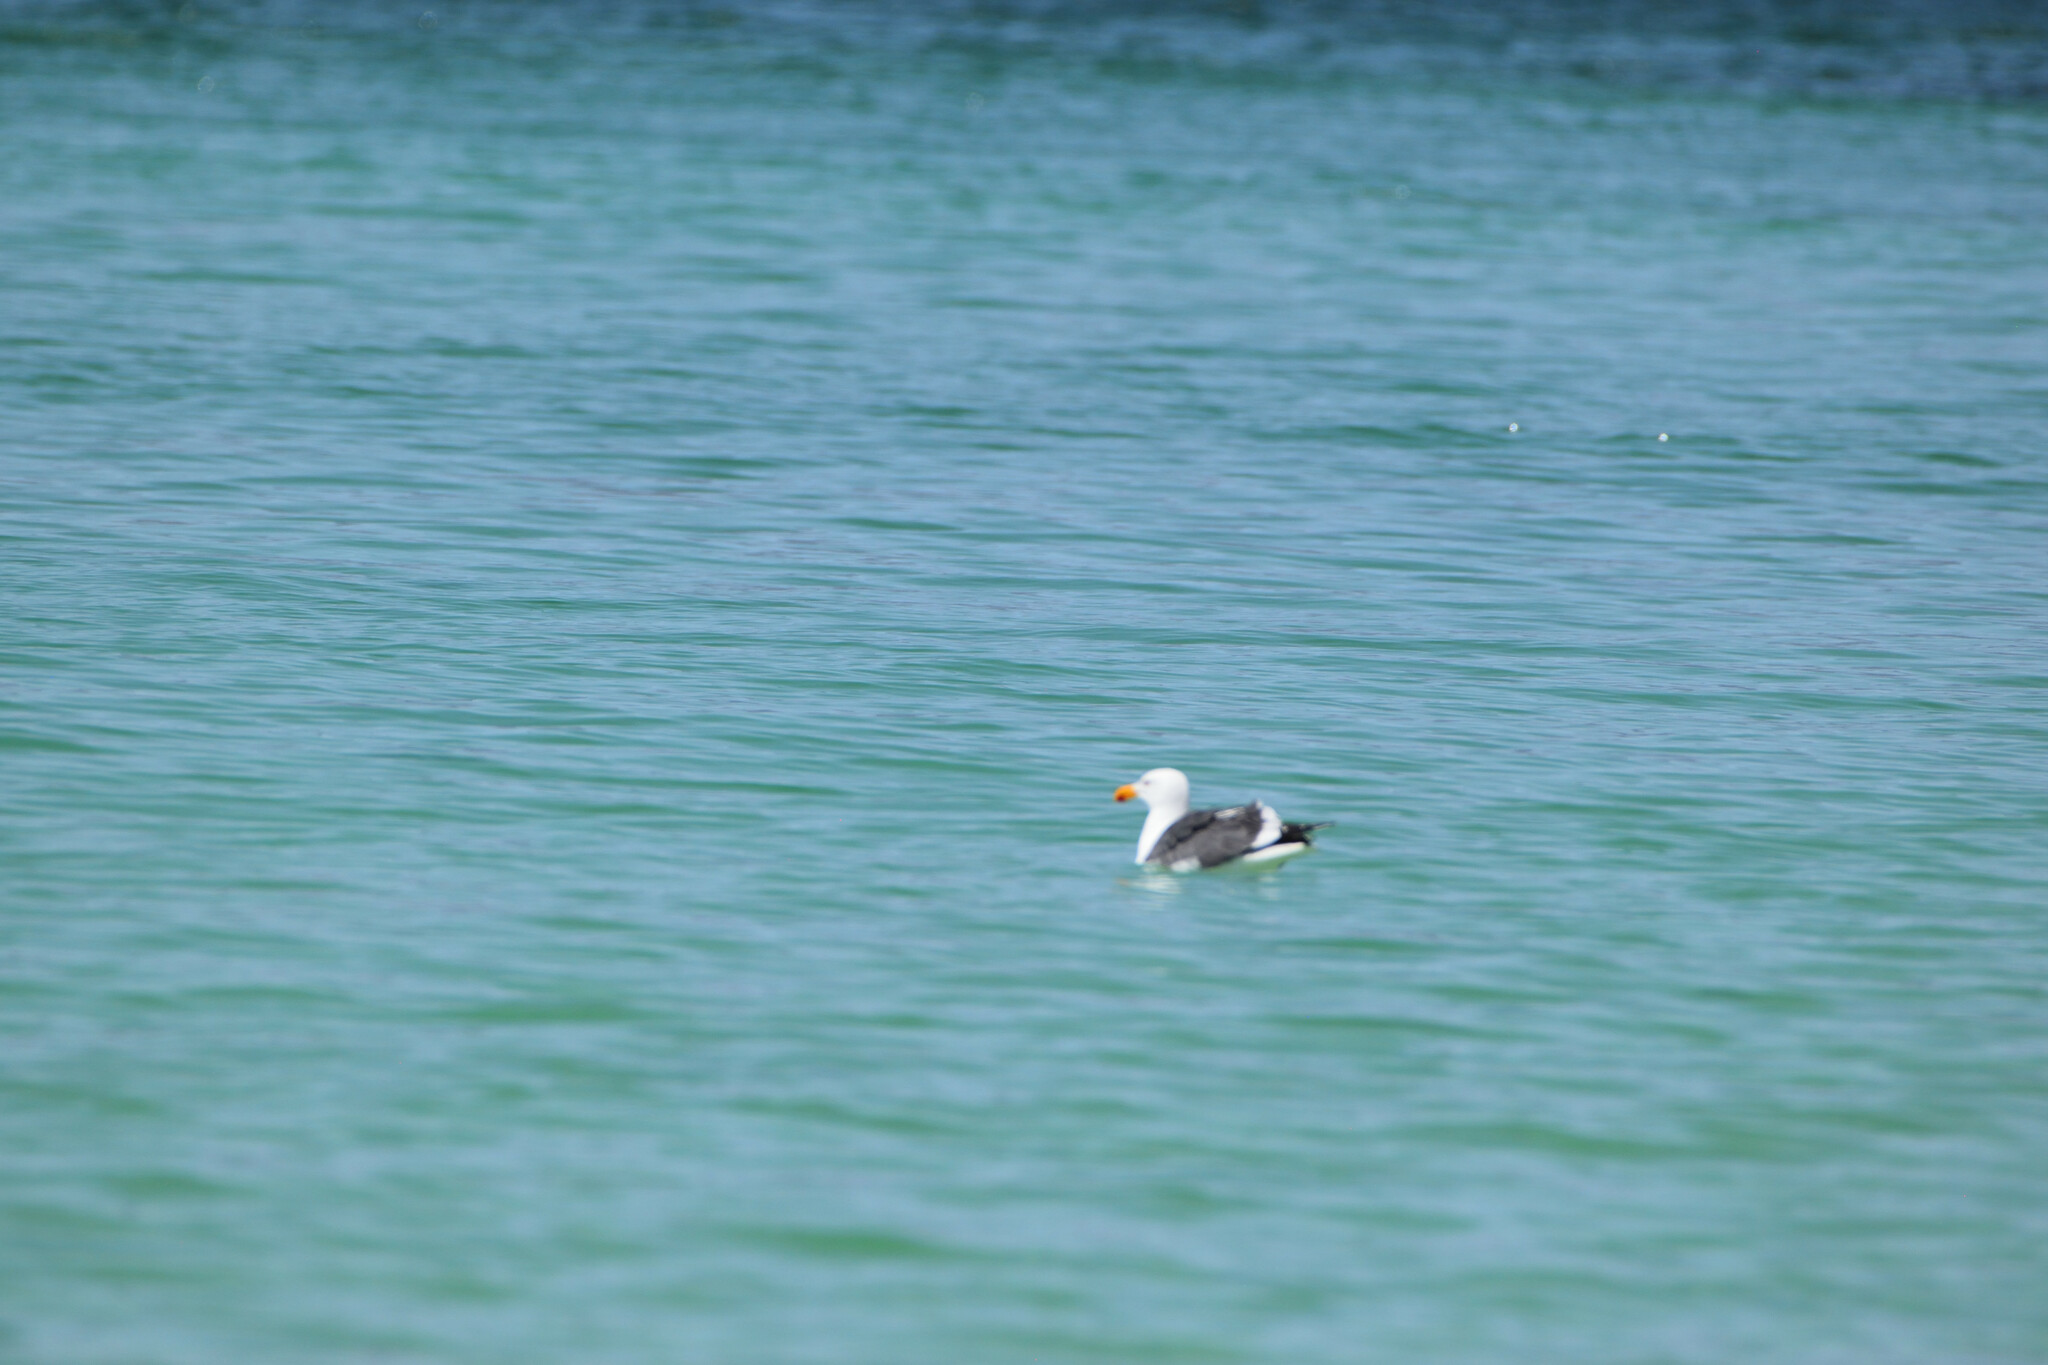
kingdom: Animalia
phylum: Chordata
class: Aves
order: Charadriiformes
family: Laridae
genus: Larus
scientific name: Larus livens
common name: Yellow-footed gull
